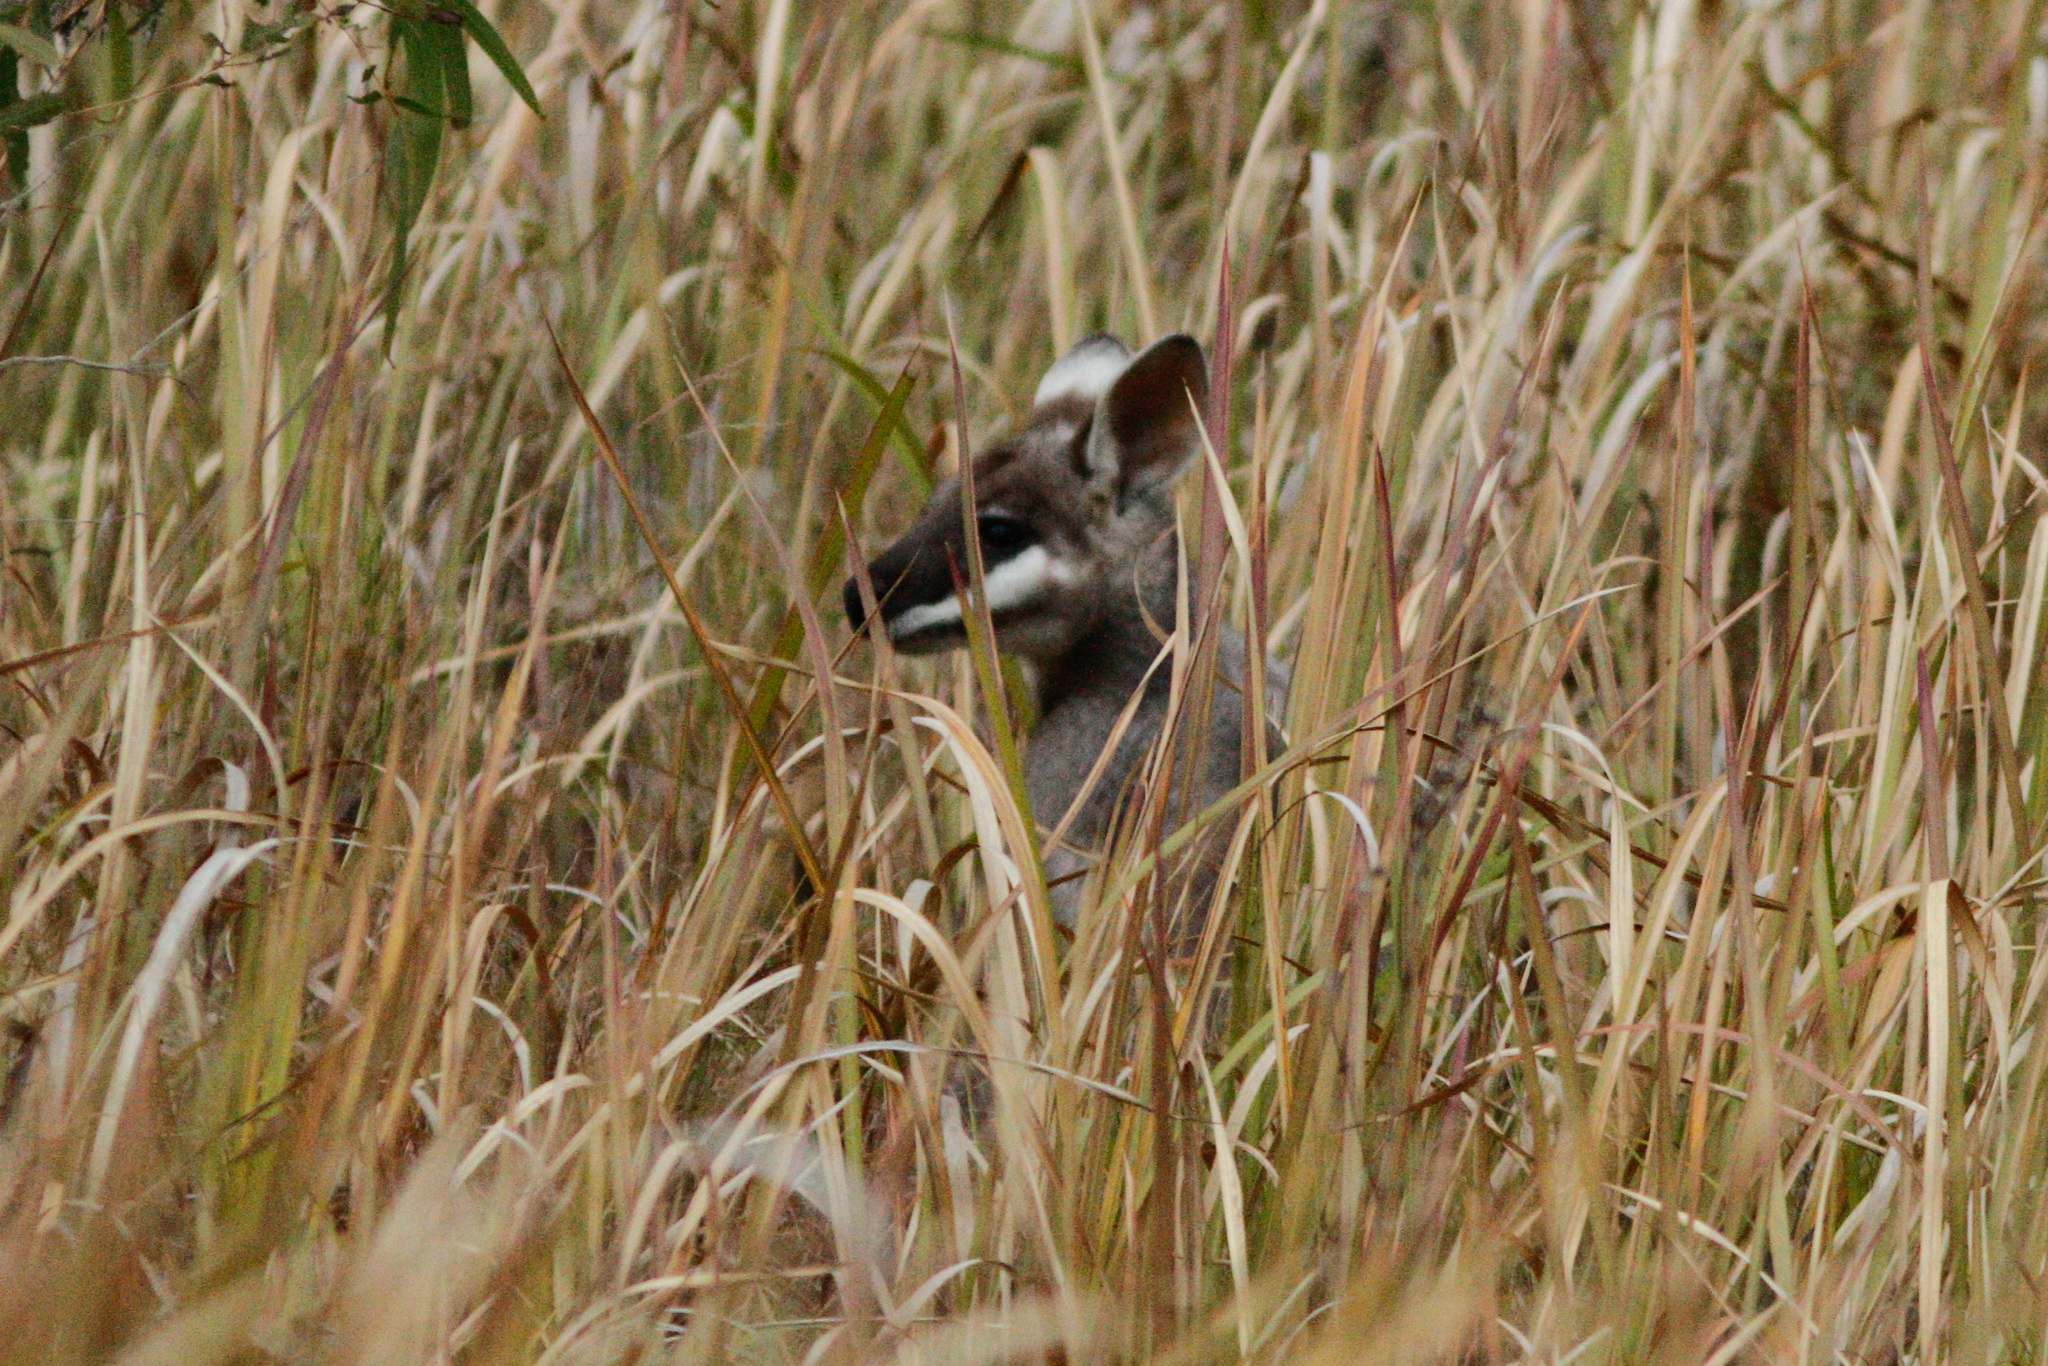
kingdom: Animalia
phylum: Chordata
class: Mammalia
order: Diprotodontia
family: Macropodidae
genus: Notamacropus
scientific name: Notamacropus parryi
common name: Whip-tailed wallaby
